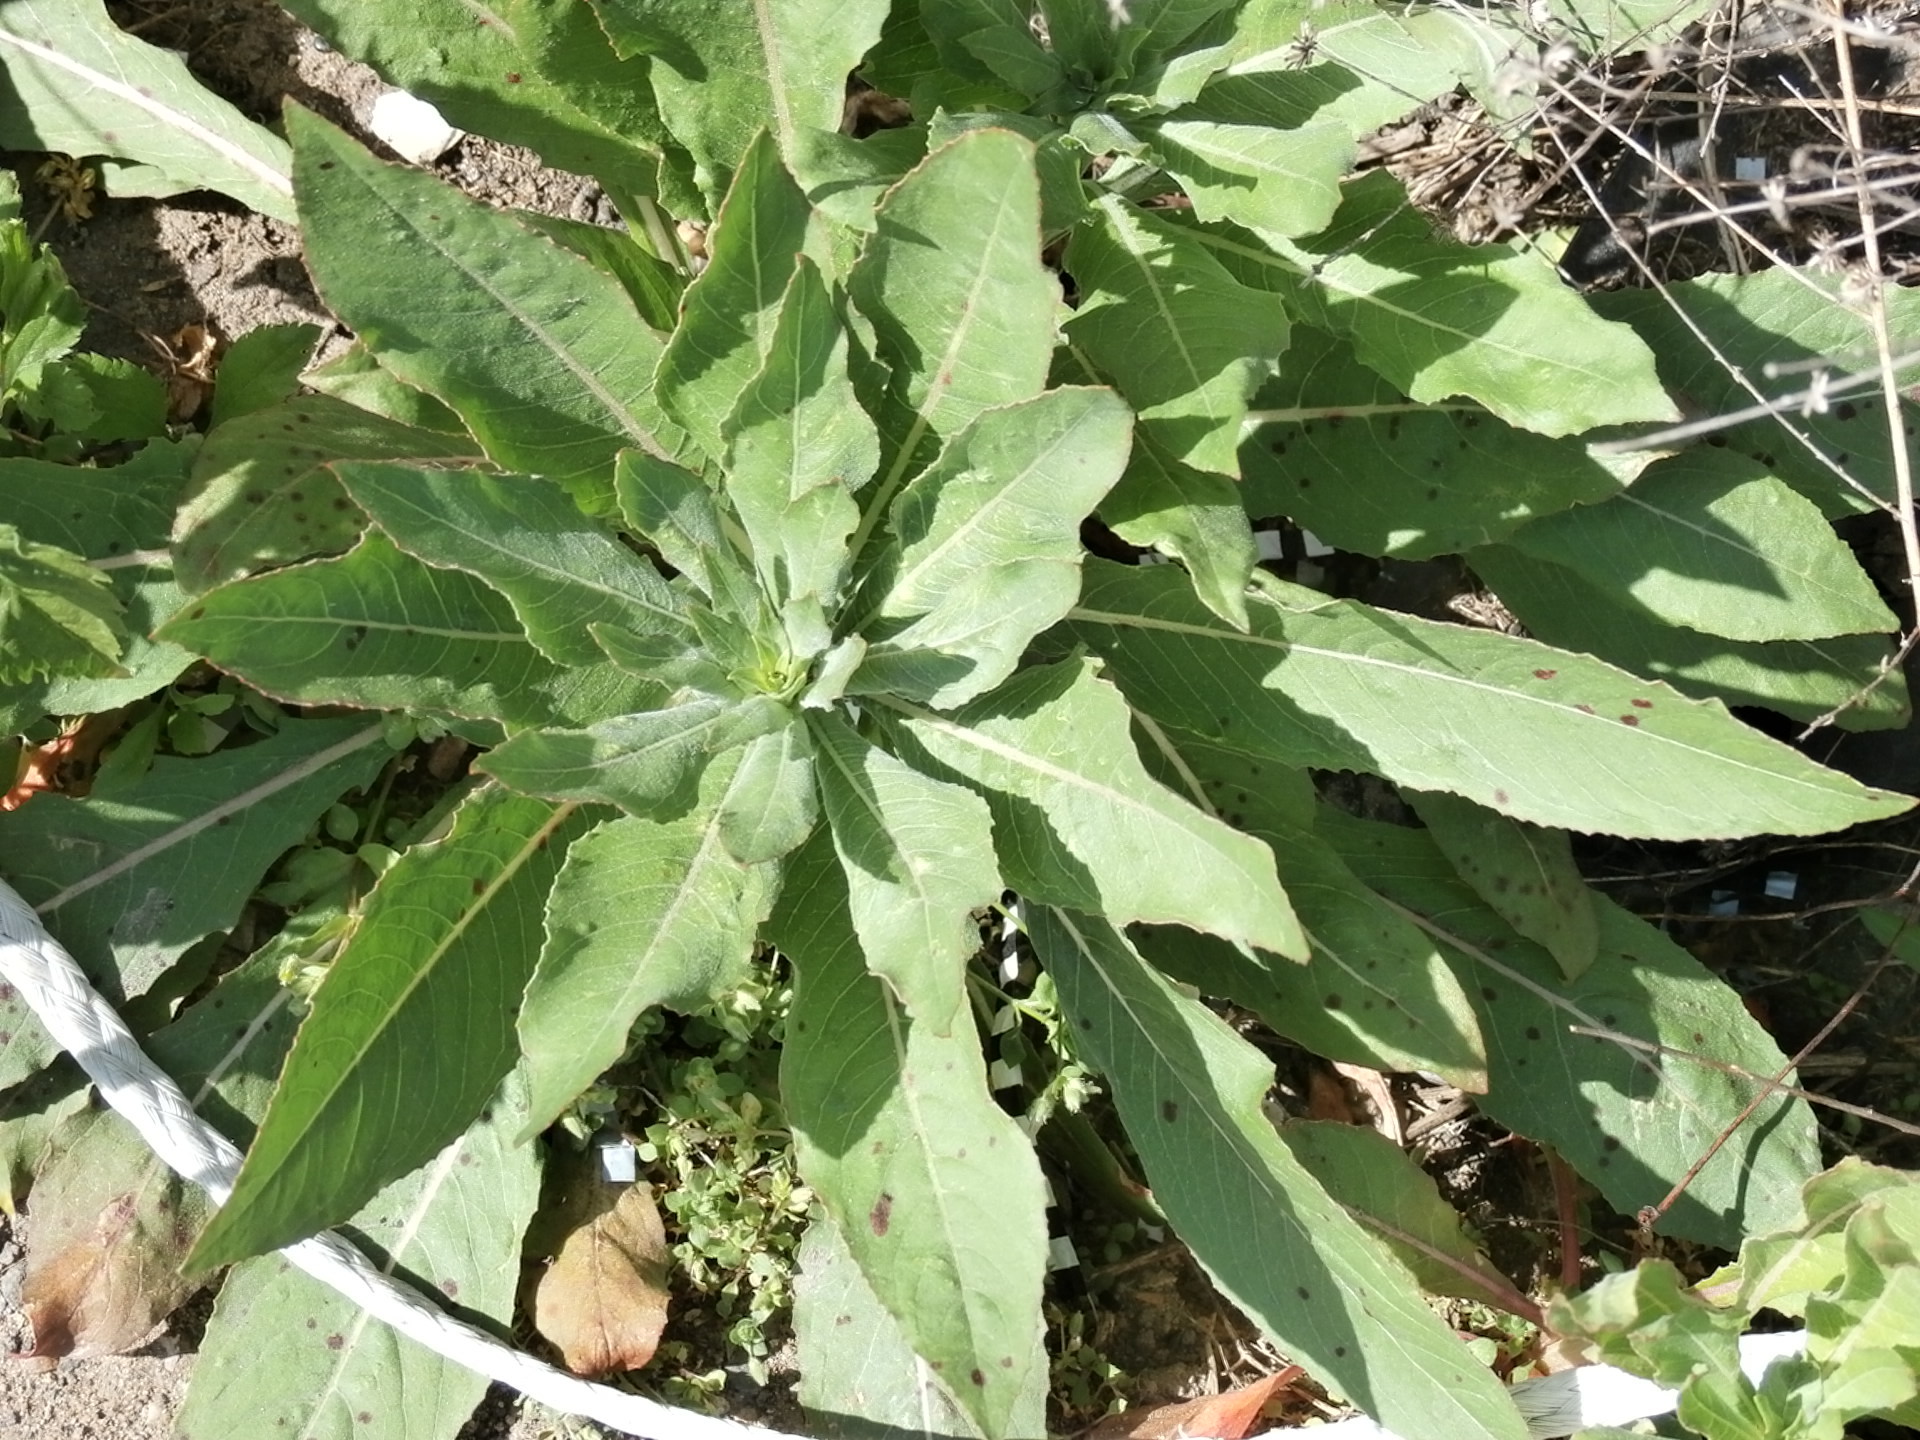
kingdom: Plantae
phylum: Tracheophyta
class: Magnoliopsida
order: Myrtales
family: Onagraceae
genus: Oenothera
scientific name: Oenothera biennis
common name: Common evening-primrose
